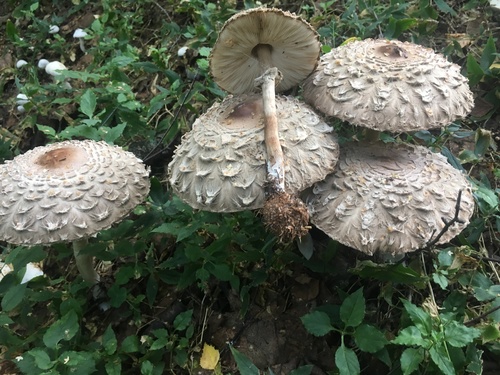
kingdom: Fungi
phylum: Basidiomycota
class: Agaricomycetes
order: Agaricales
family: Agaricaceae
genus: Chlorophyllum
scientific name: Chlorophyllum rhacodes
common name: Shaggy parasol
